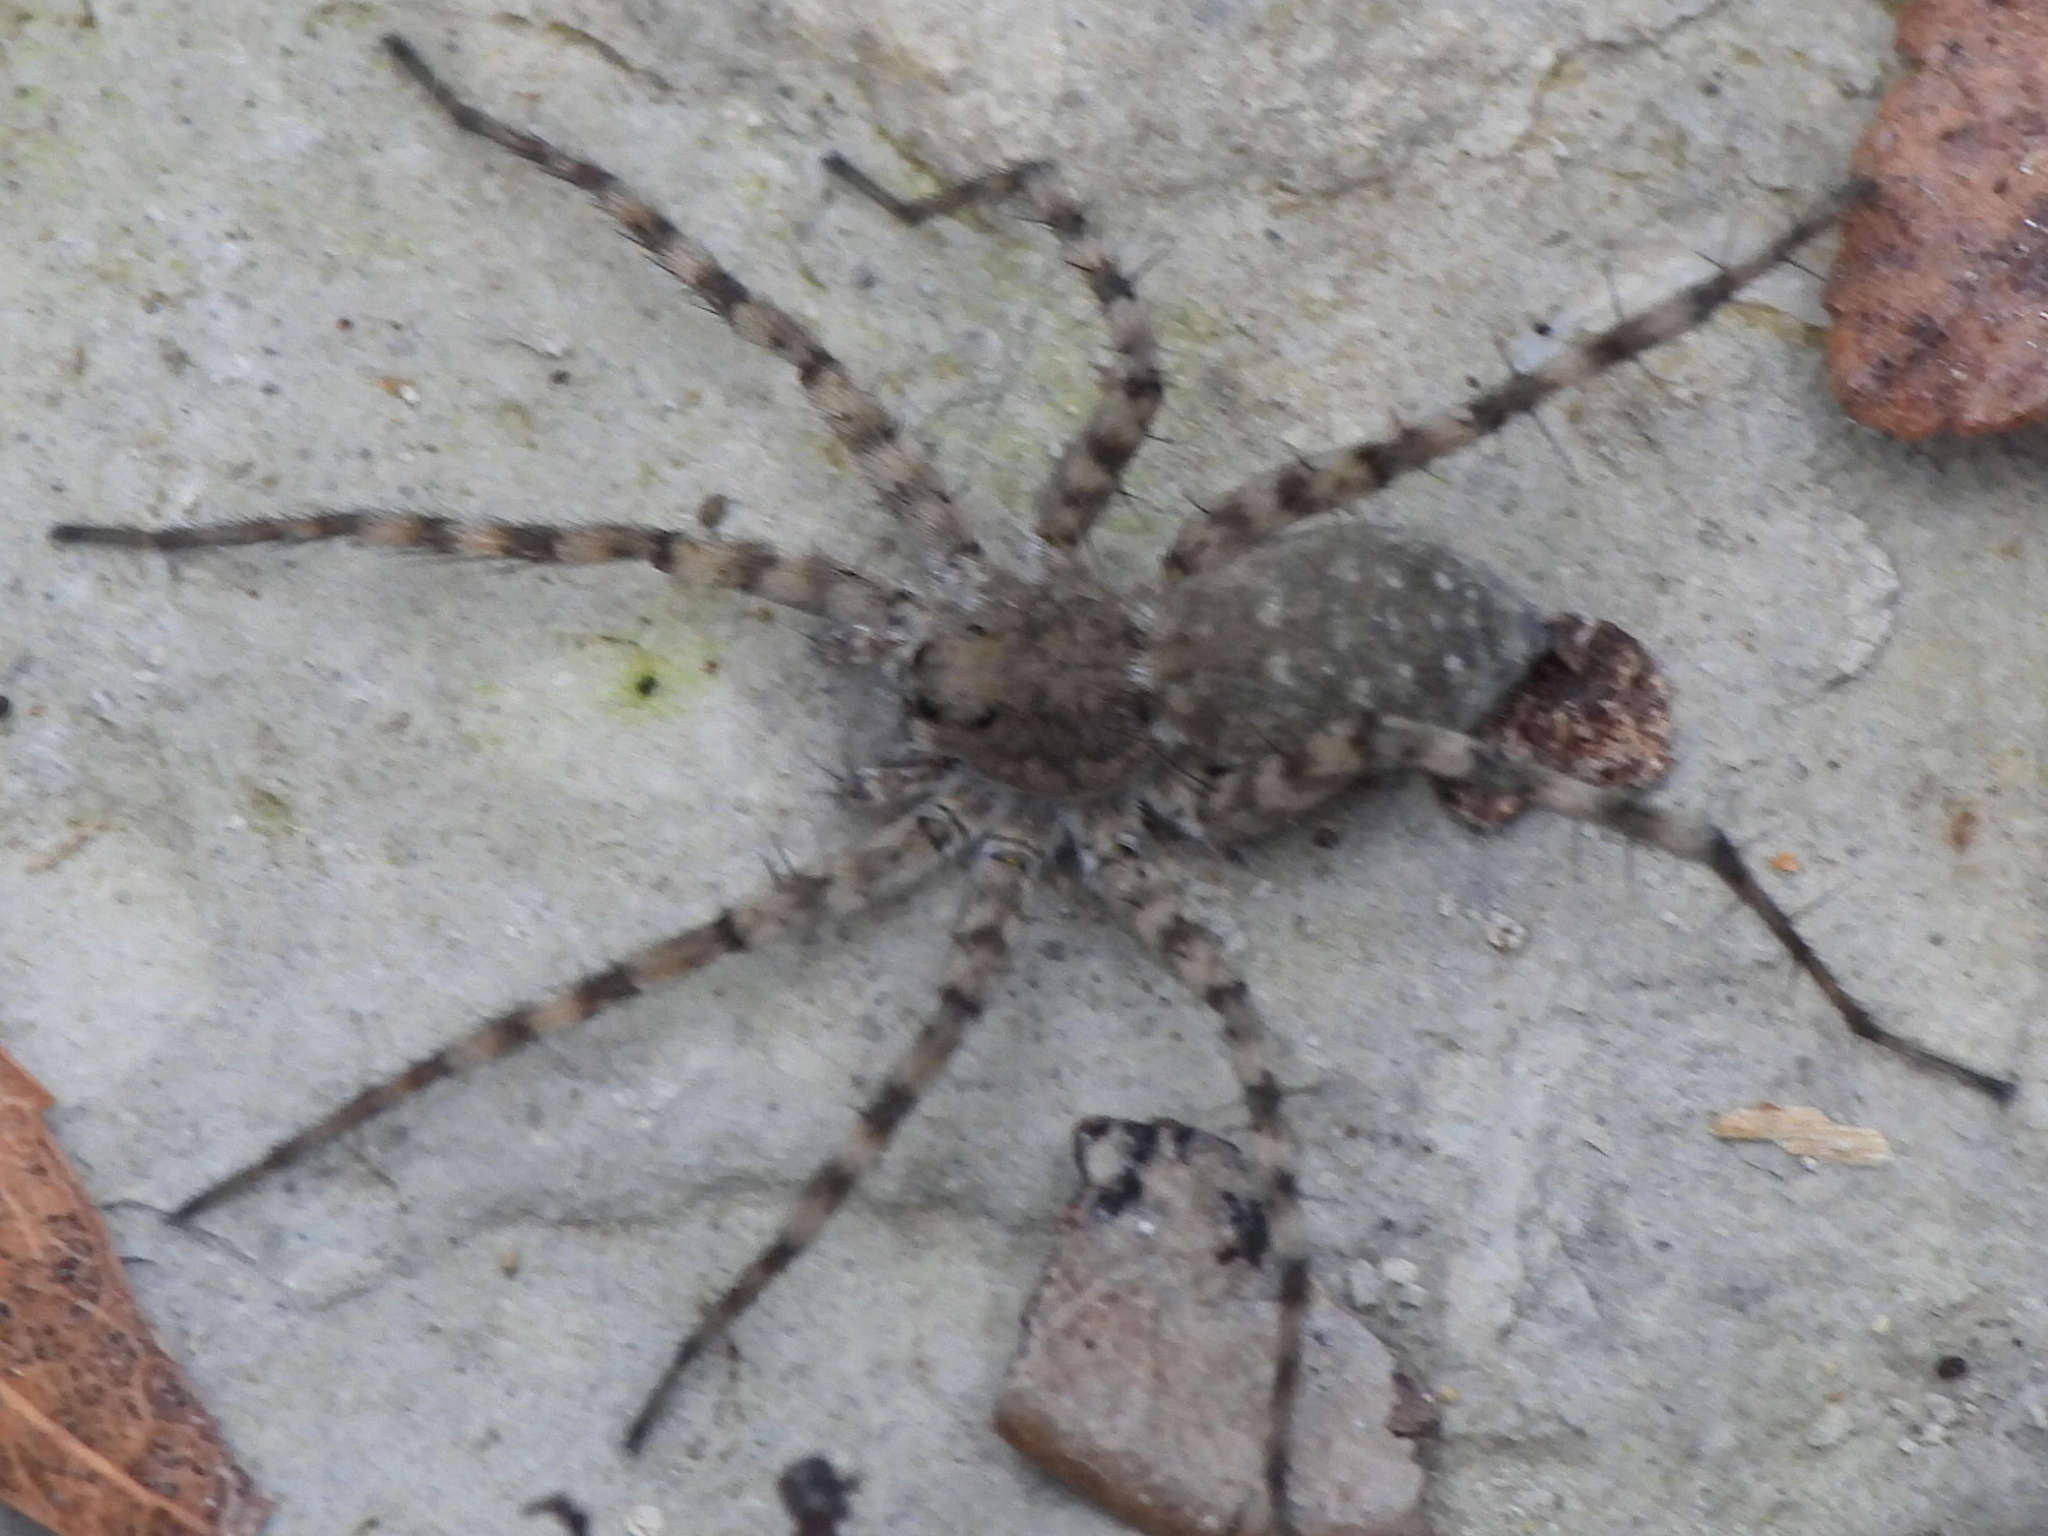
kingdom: Animalia
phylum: Arthropoda
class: Arachnida
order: Araneae
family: Lycosidae
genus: Pardosa
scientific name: Pardosa mercurialis
